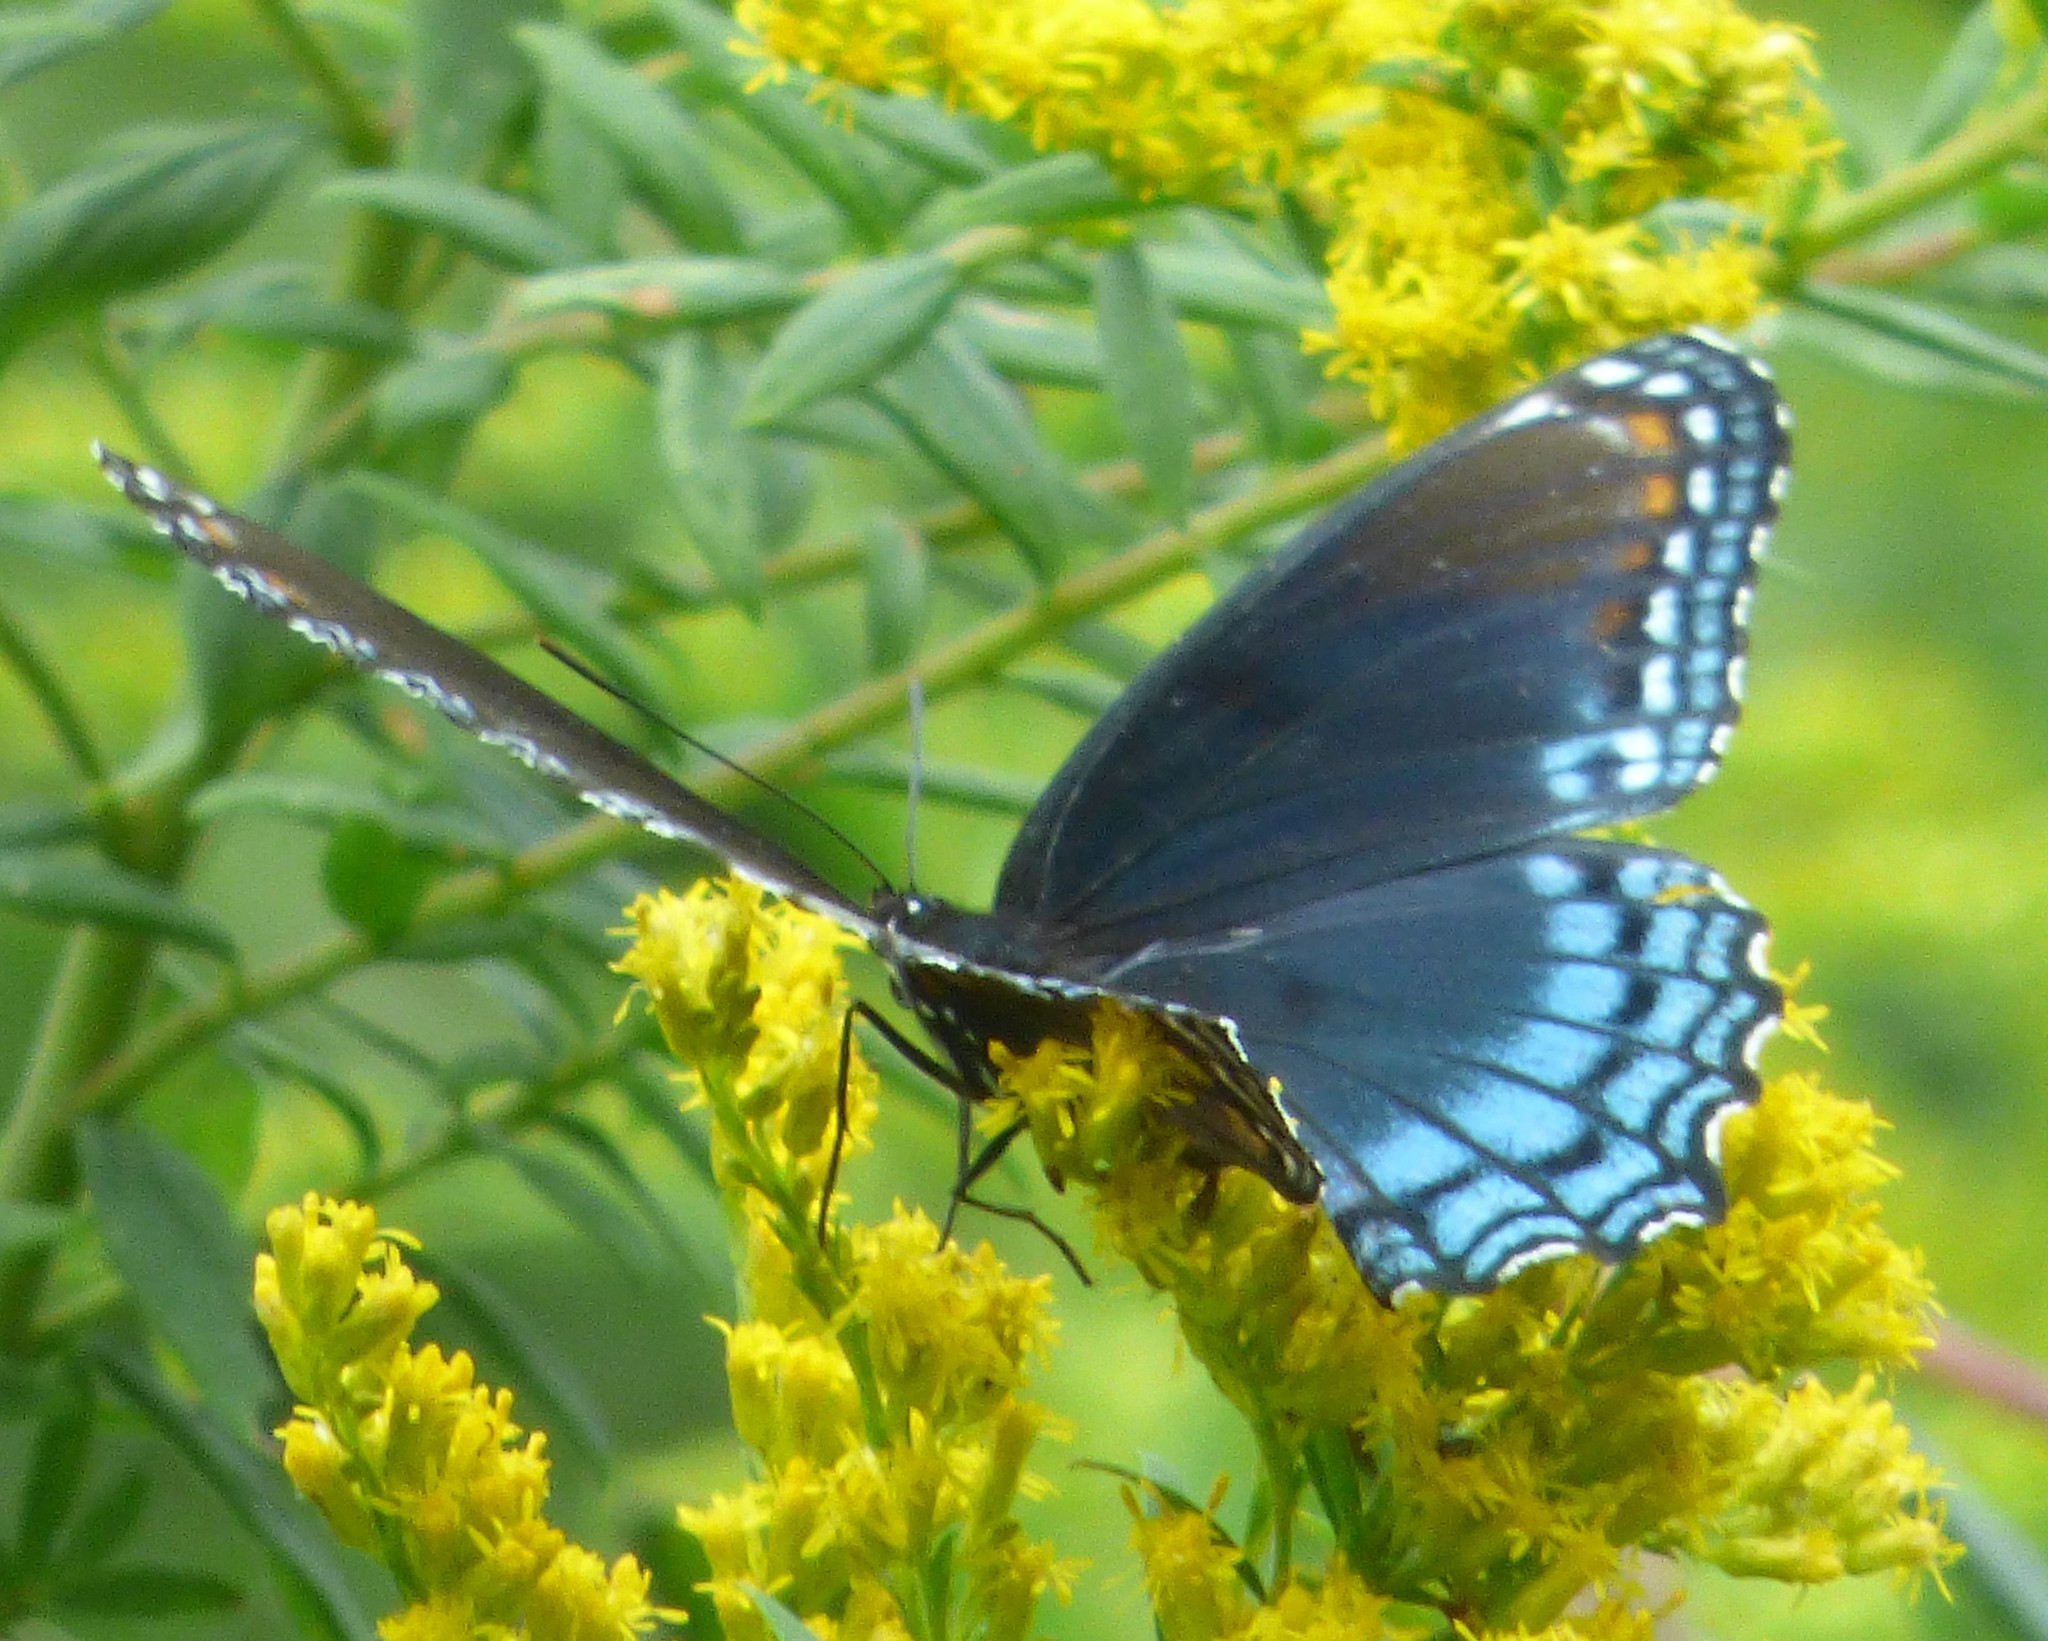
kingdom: Animalia
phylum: Arthropoda
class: Insecta
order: Lepidoptera
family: Nymphalidae
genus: Limenitis
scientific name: Limenitis astyanax
